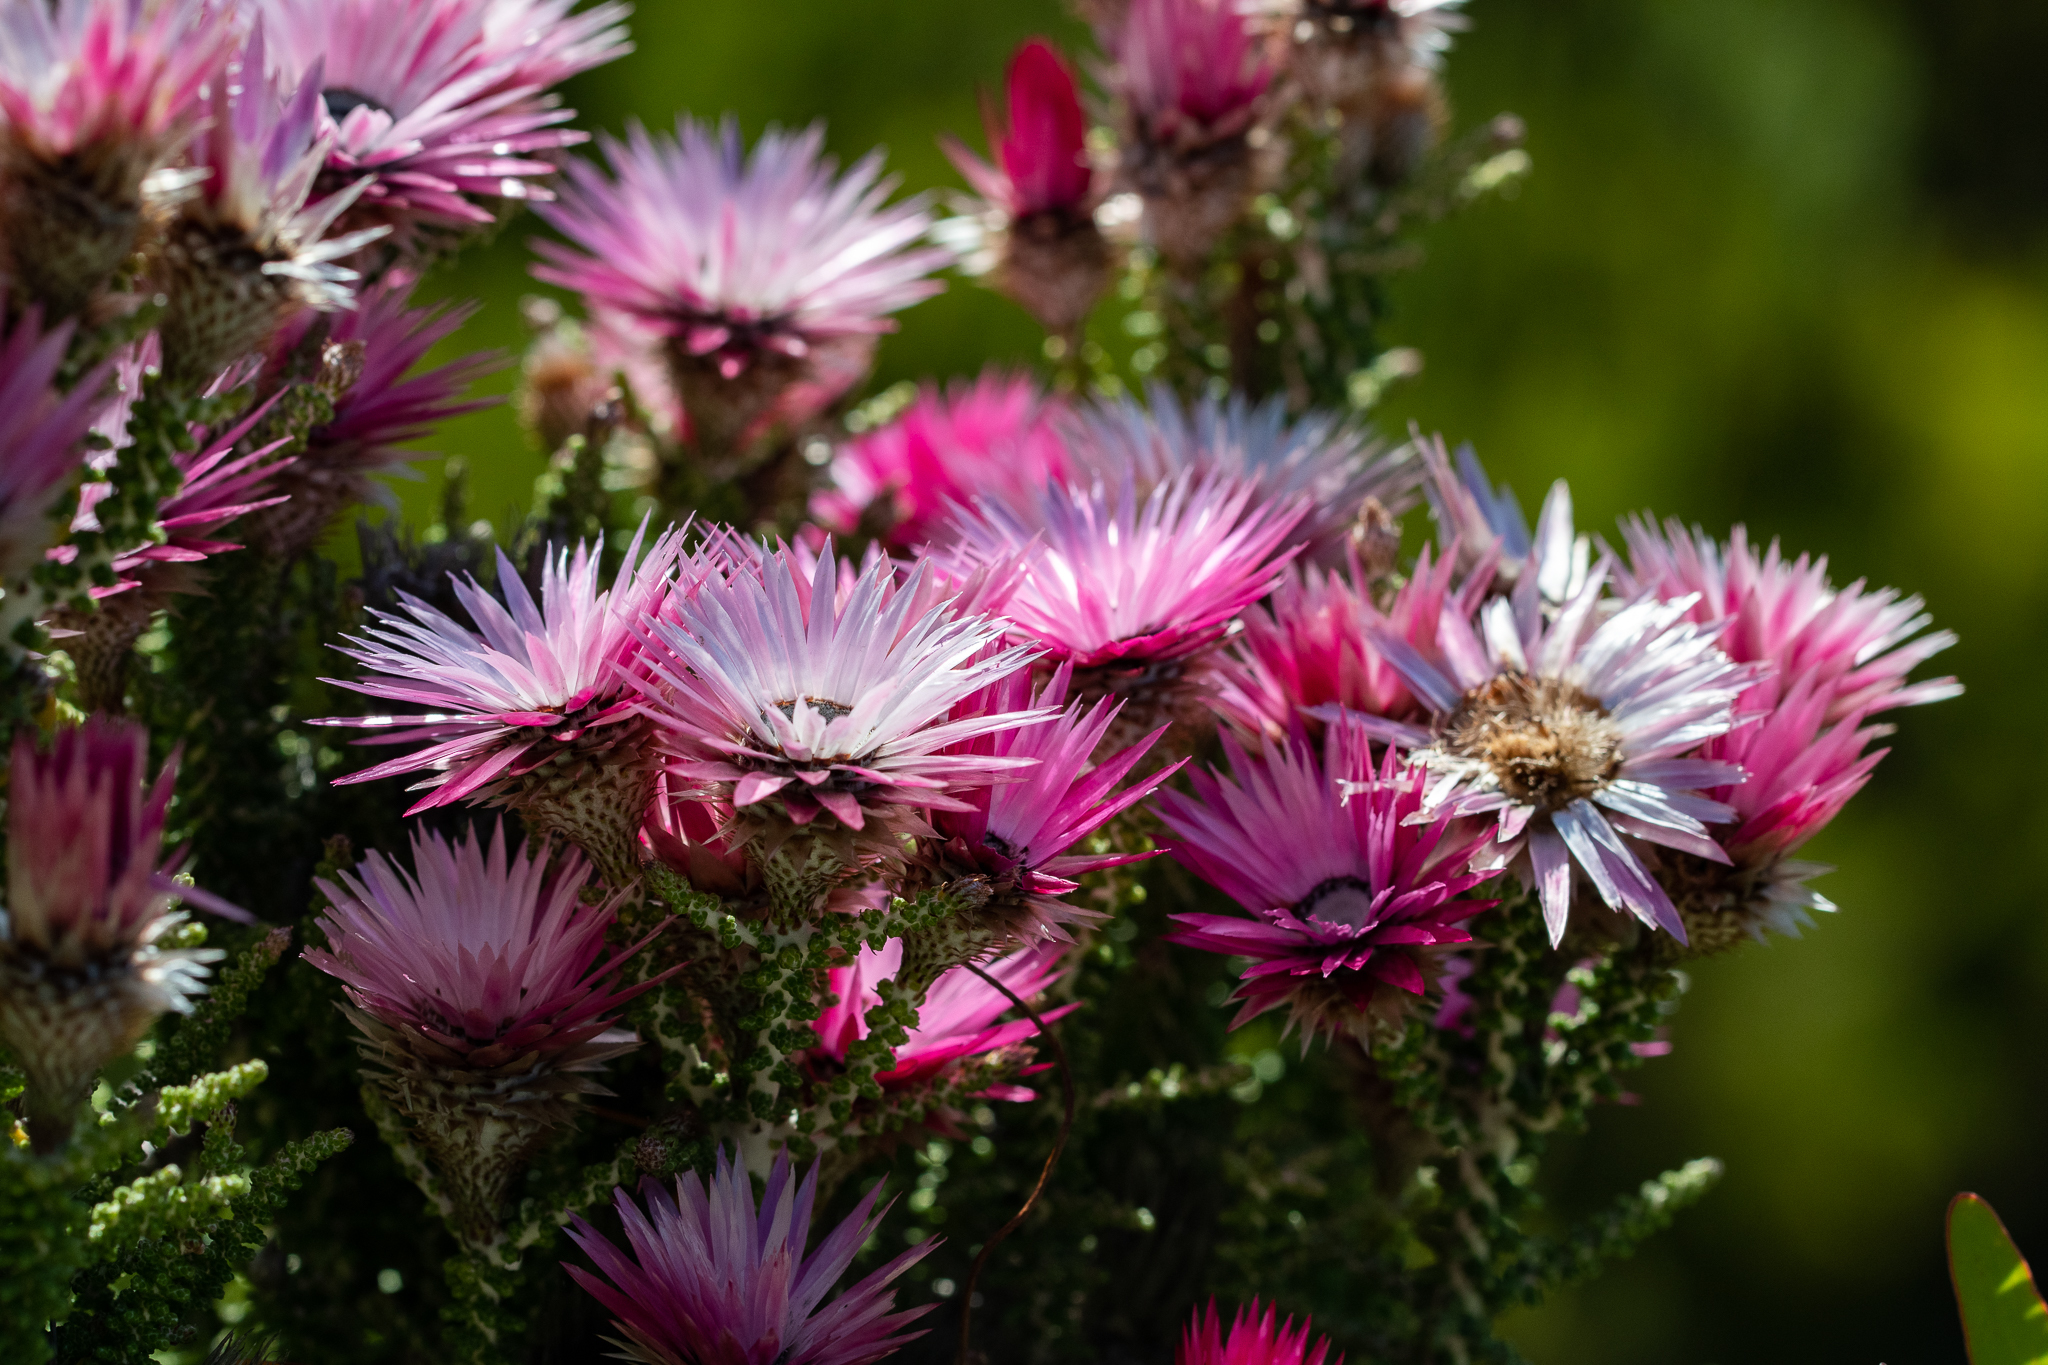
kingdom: Plantae
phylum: Tracheophyta
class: Magnoliopsida
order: Asterales
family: Asteraceae
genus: Phaenocoma
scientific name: Phaenocoma prolifera
